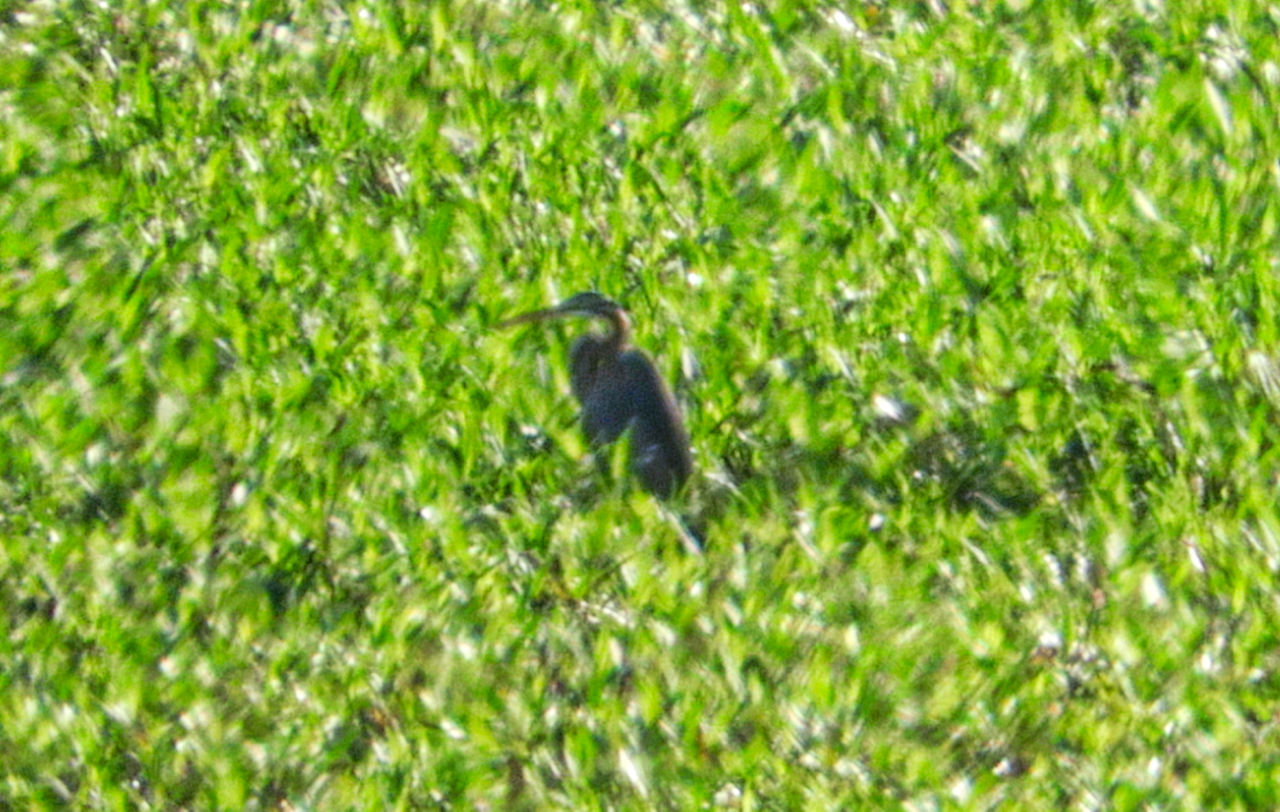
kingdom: Animalia
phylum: Chordata
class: Aves
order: Pelecaniformes
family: Ardeidae
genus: Ardea
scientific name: Ardea purpurea
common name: Purple heron
